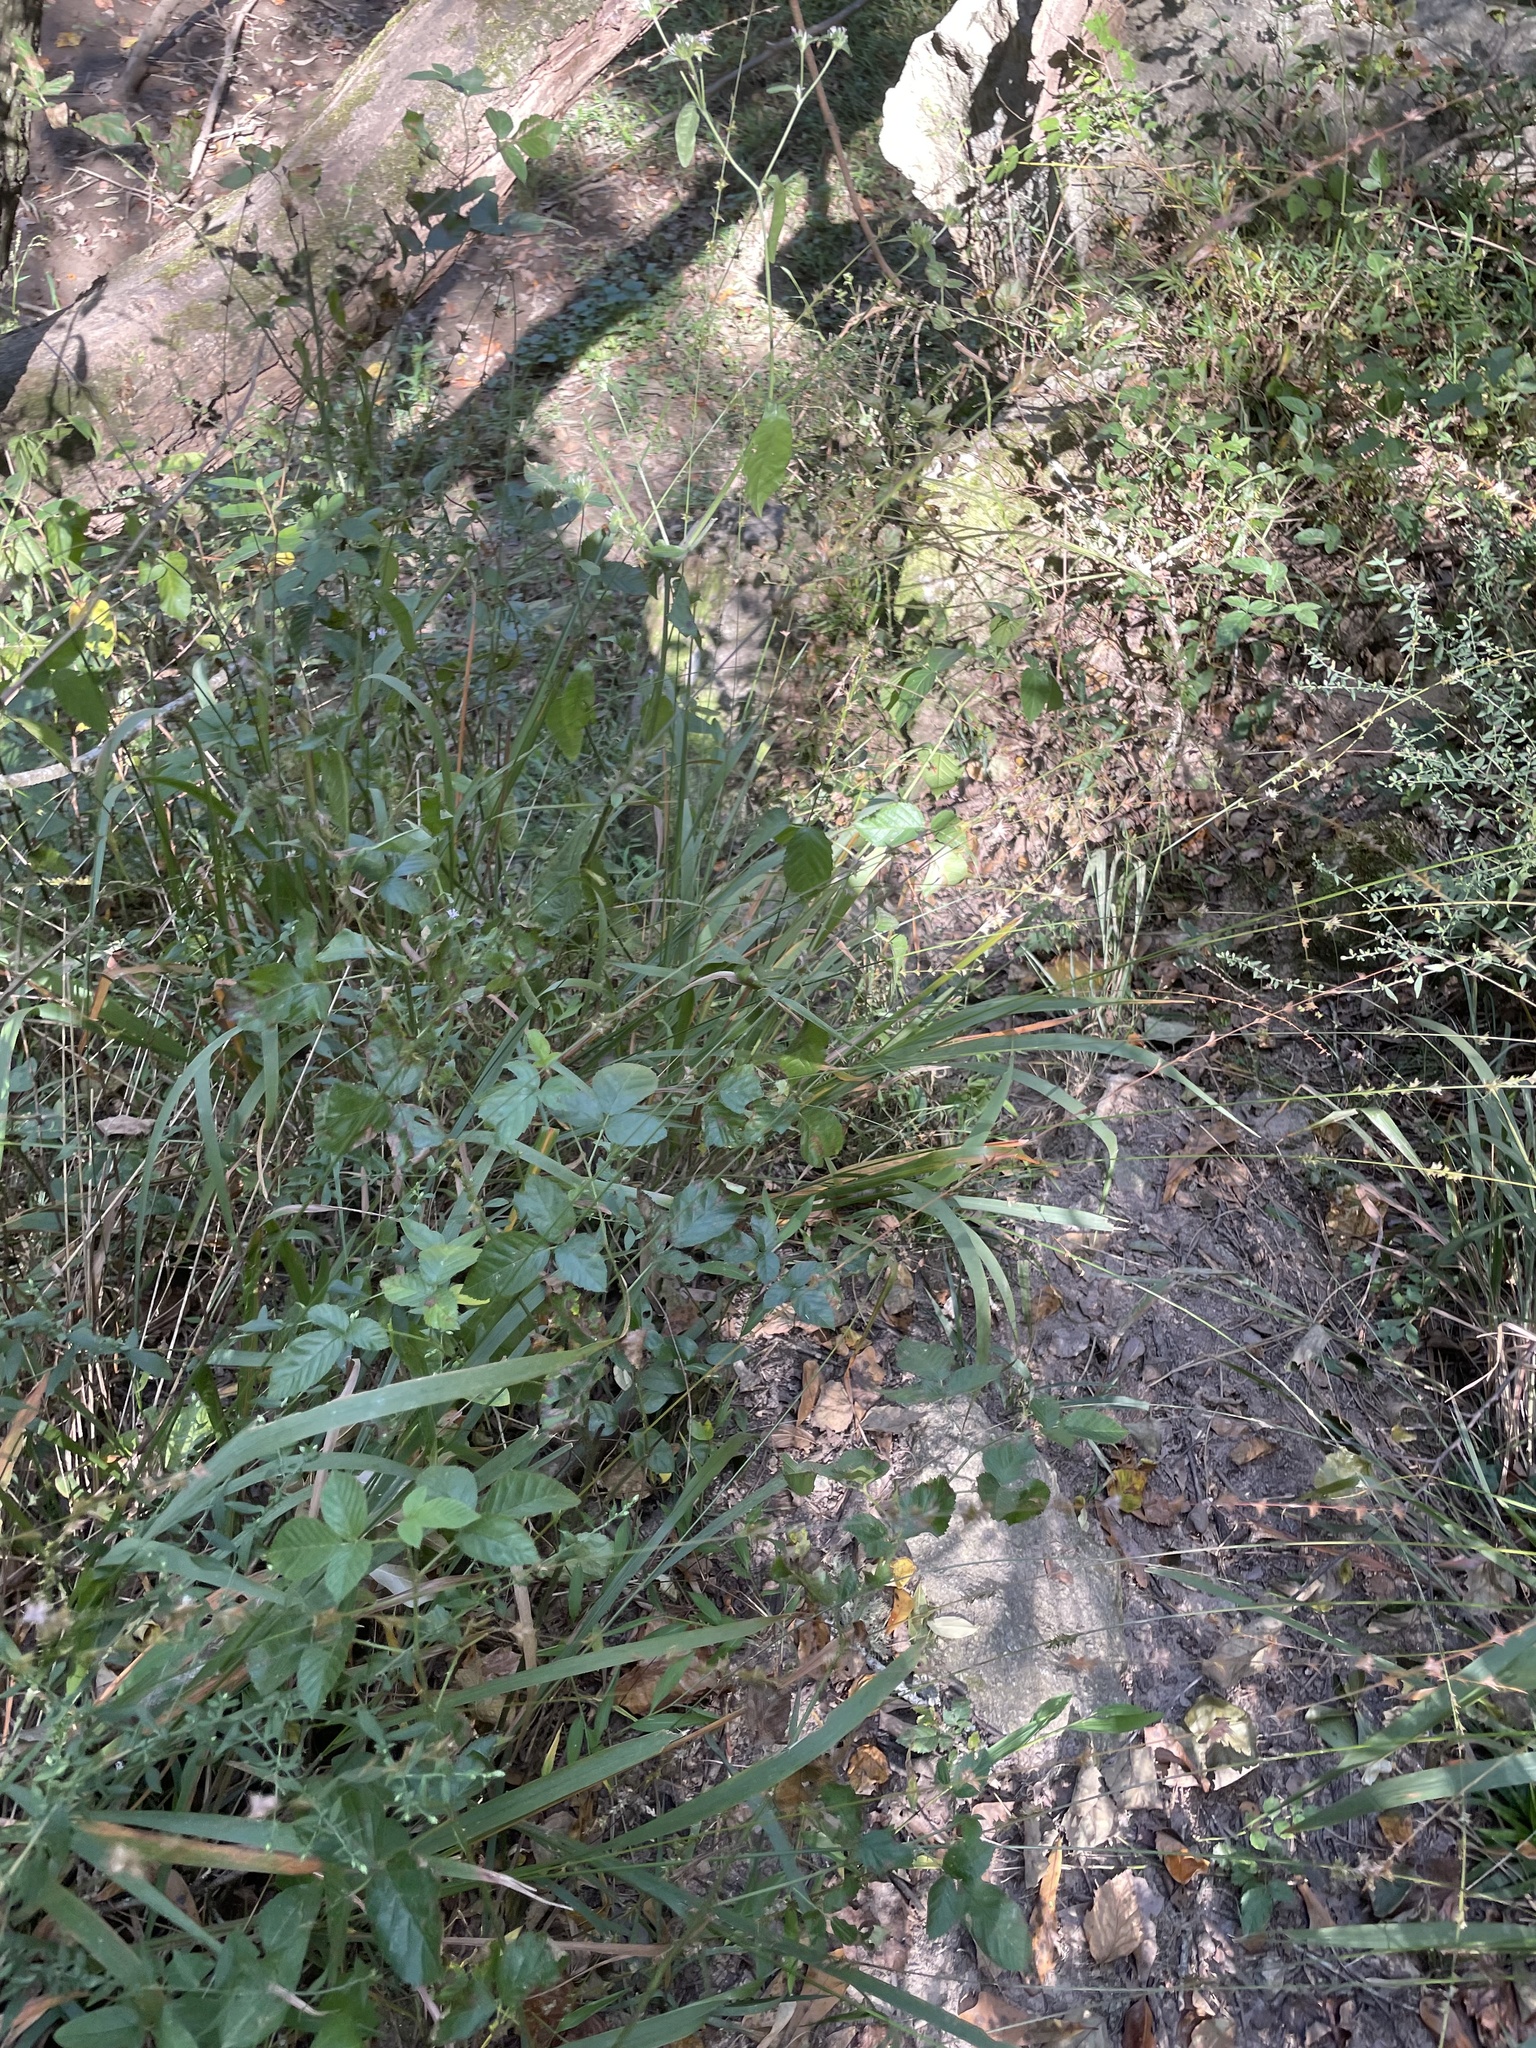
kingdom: Plantae
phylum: Tracheophyta
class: Liliopsida
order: Poales
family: Poaceae
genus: Chasmanthium
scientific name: Chasmanthium laxum
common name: Slender chasmanthium
